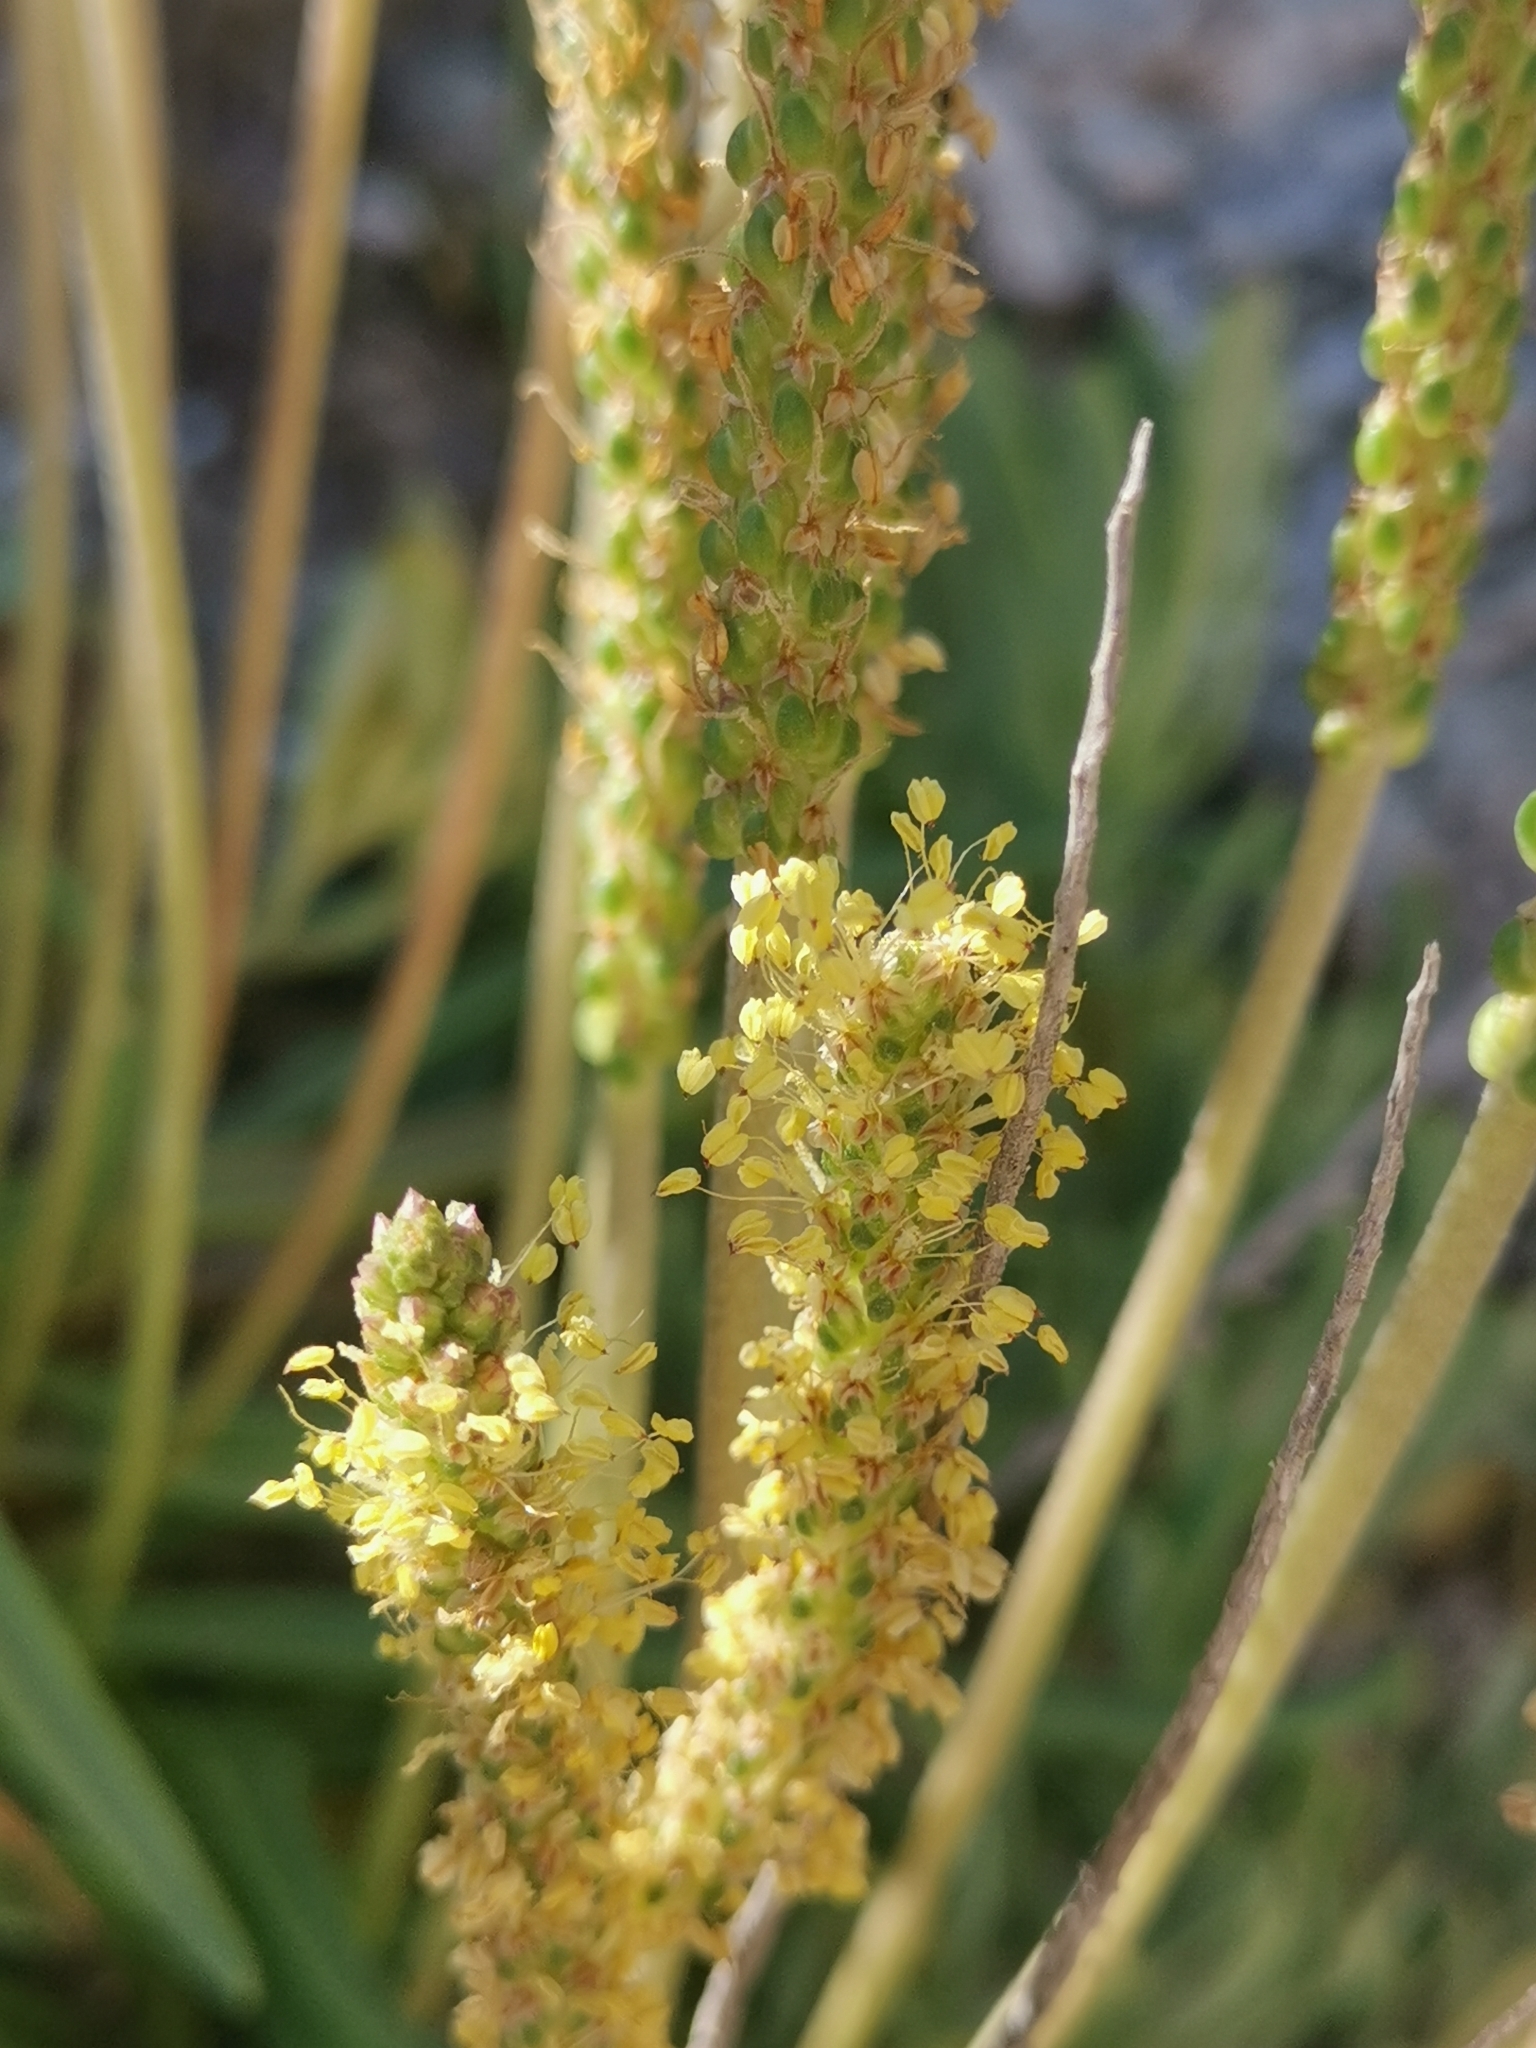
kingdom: Plantae
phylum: Tracheophyta
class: Magnoliopsida
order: Lamiales
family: Plantaginaceae
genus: Plantago
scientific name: Plantago maritima
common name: Sea plantain
